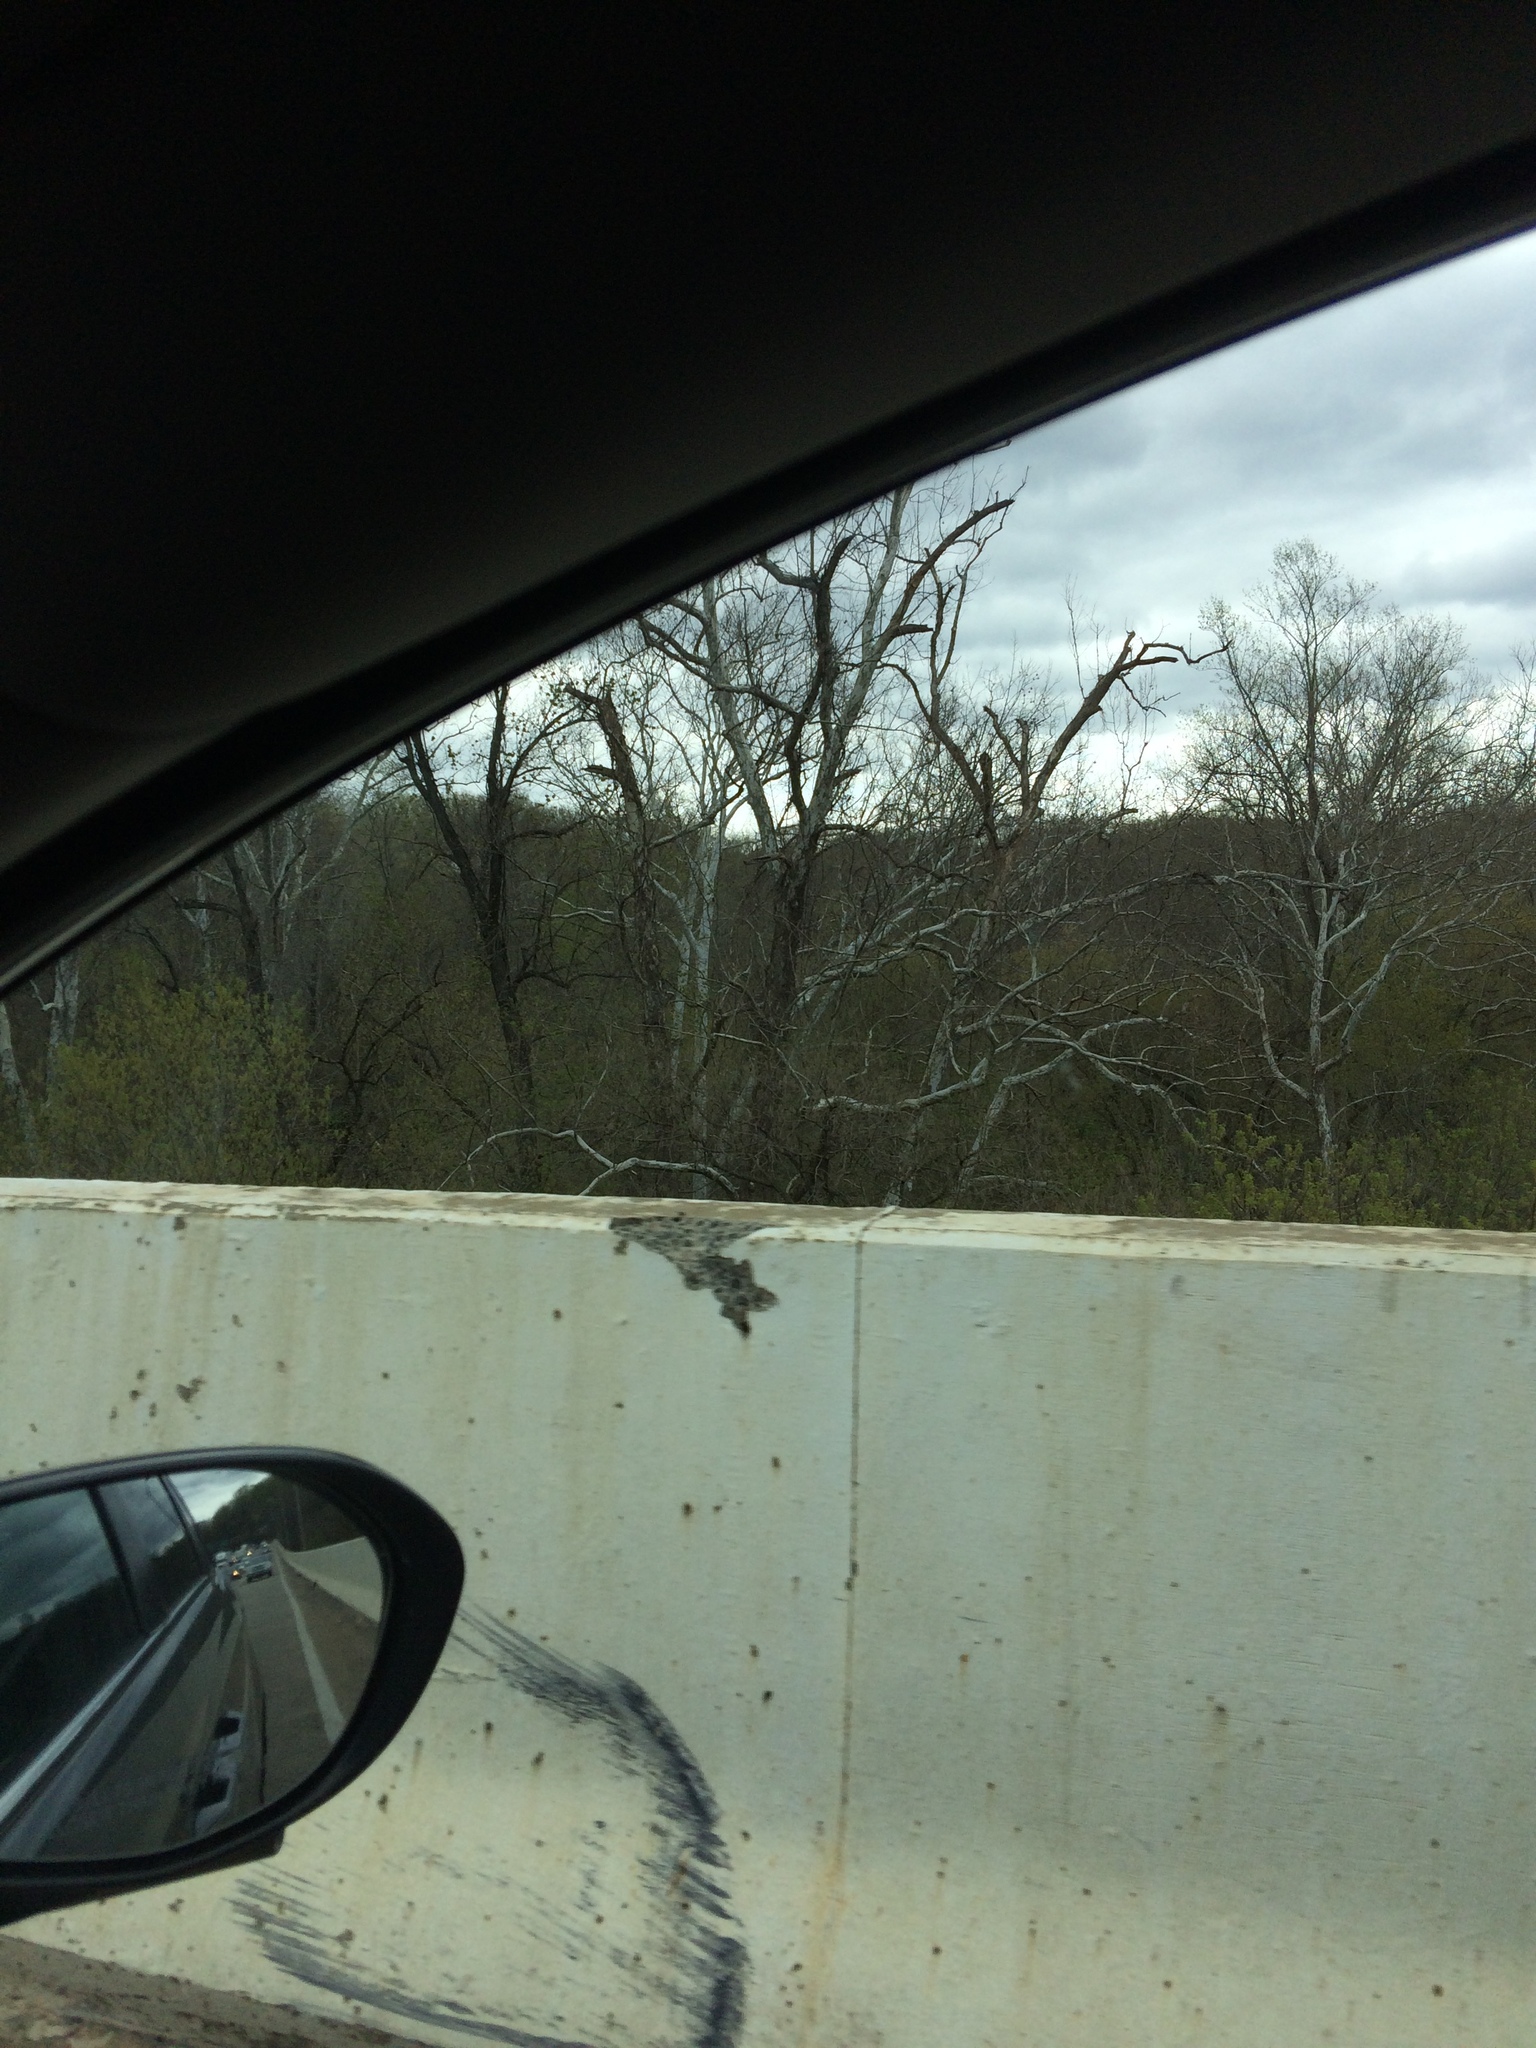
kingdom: Plantae
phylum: Tracheophyta
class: Magnoliopsida
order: Proteales
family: Platanaceae
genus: Platanus
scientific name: Platanus occidentalis
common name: American sycamore
